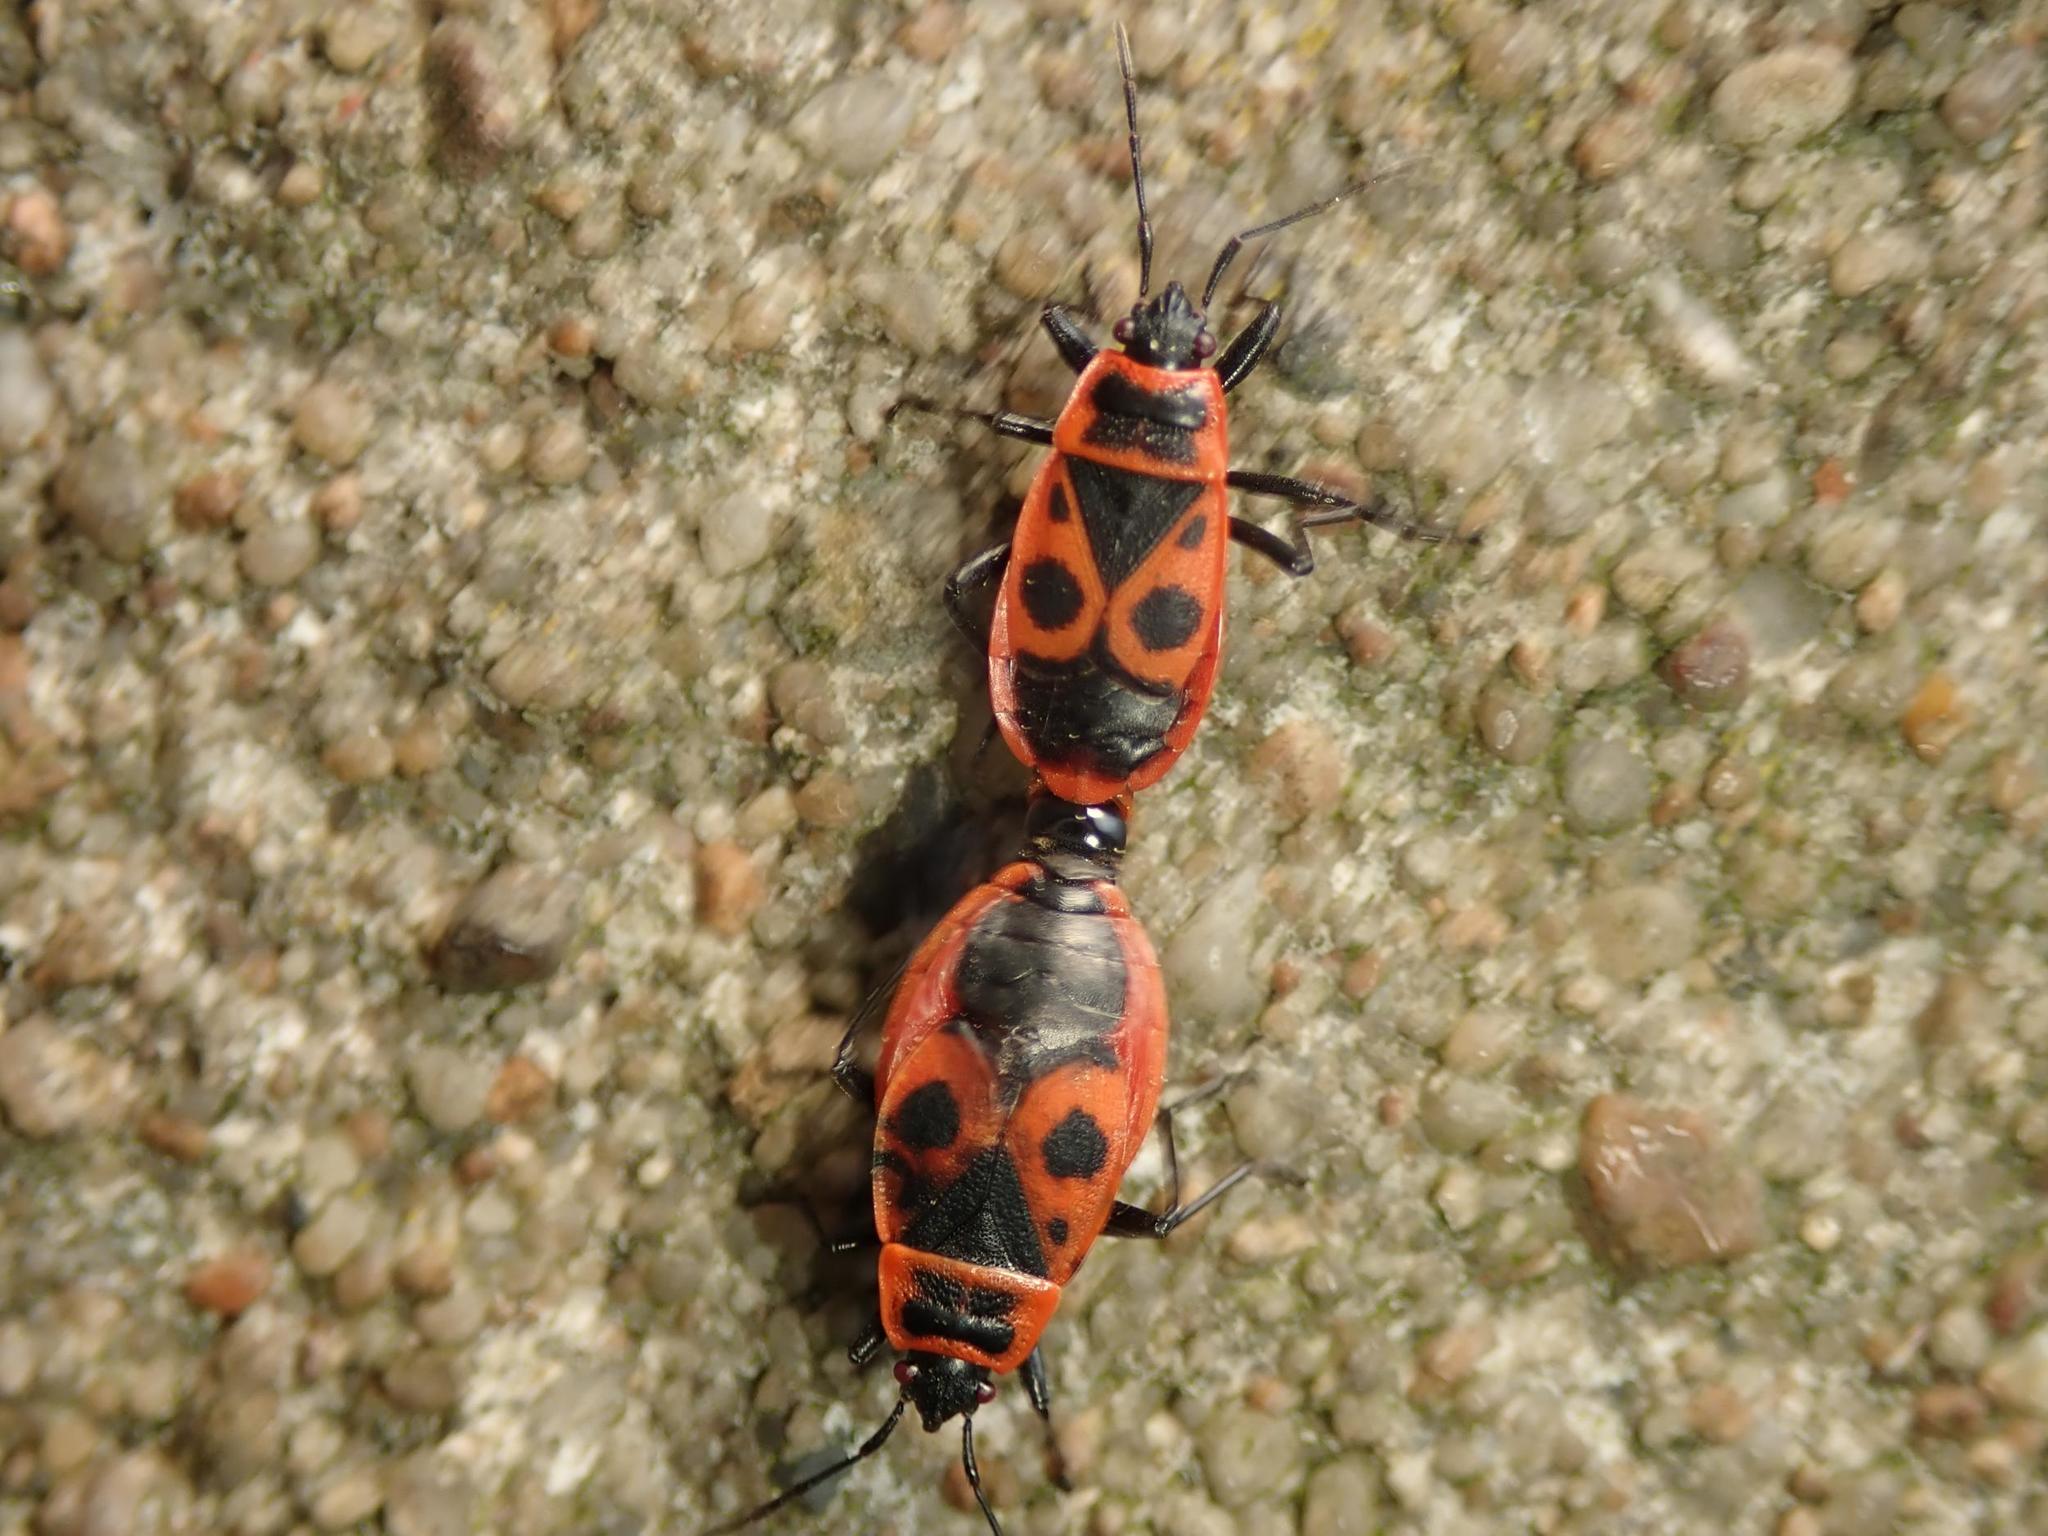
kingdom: Animalia
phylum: Arthropoda
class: Insecta
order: Hemiptera
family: Pyrrhocoridae
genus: Pyrrhocoris
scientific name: Pyrrhocoris apterus
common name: Firebug
